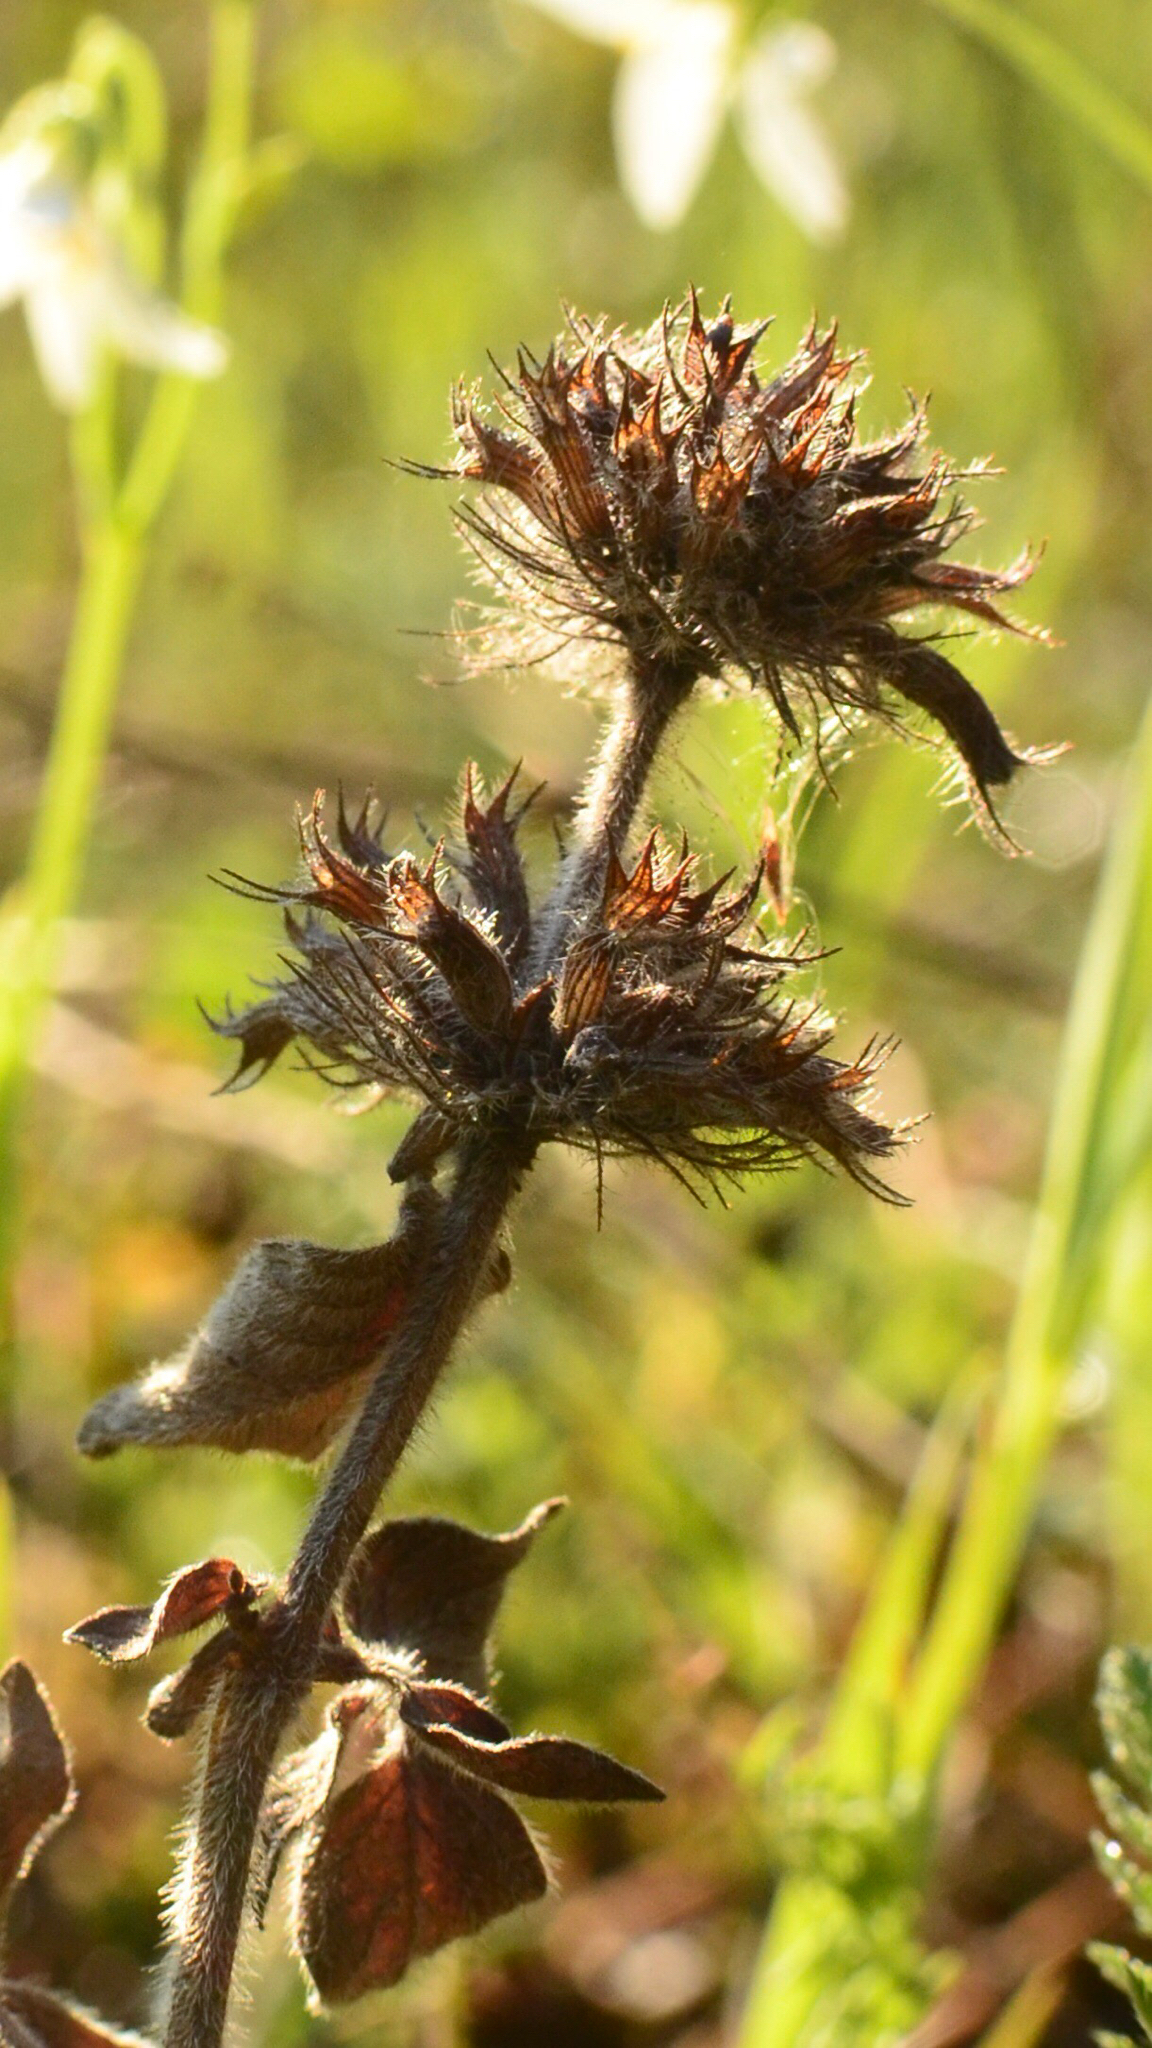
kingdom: Plantae
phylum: Tracheophyta
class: Magnoliopsida
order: Lamiales
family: Lamiaceae
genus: Clinopodium
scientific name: Clinopodium vulgare
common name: Wild basil
